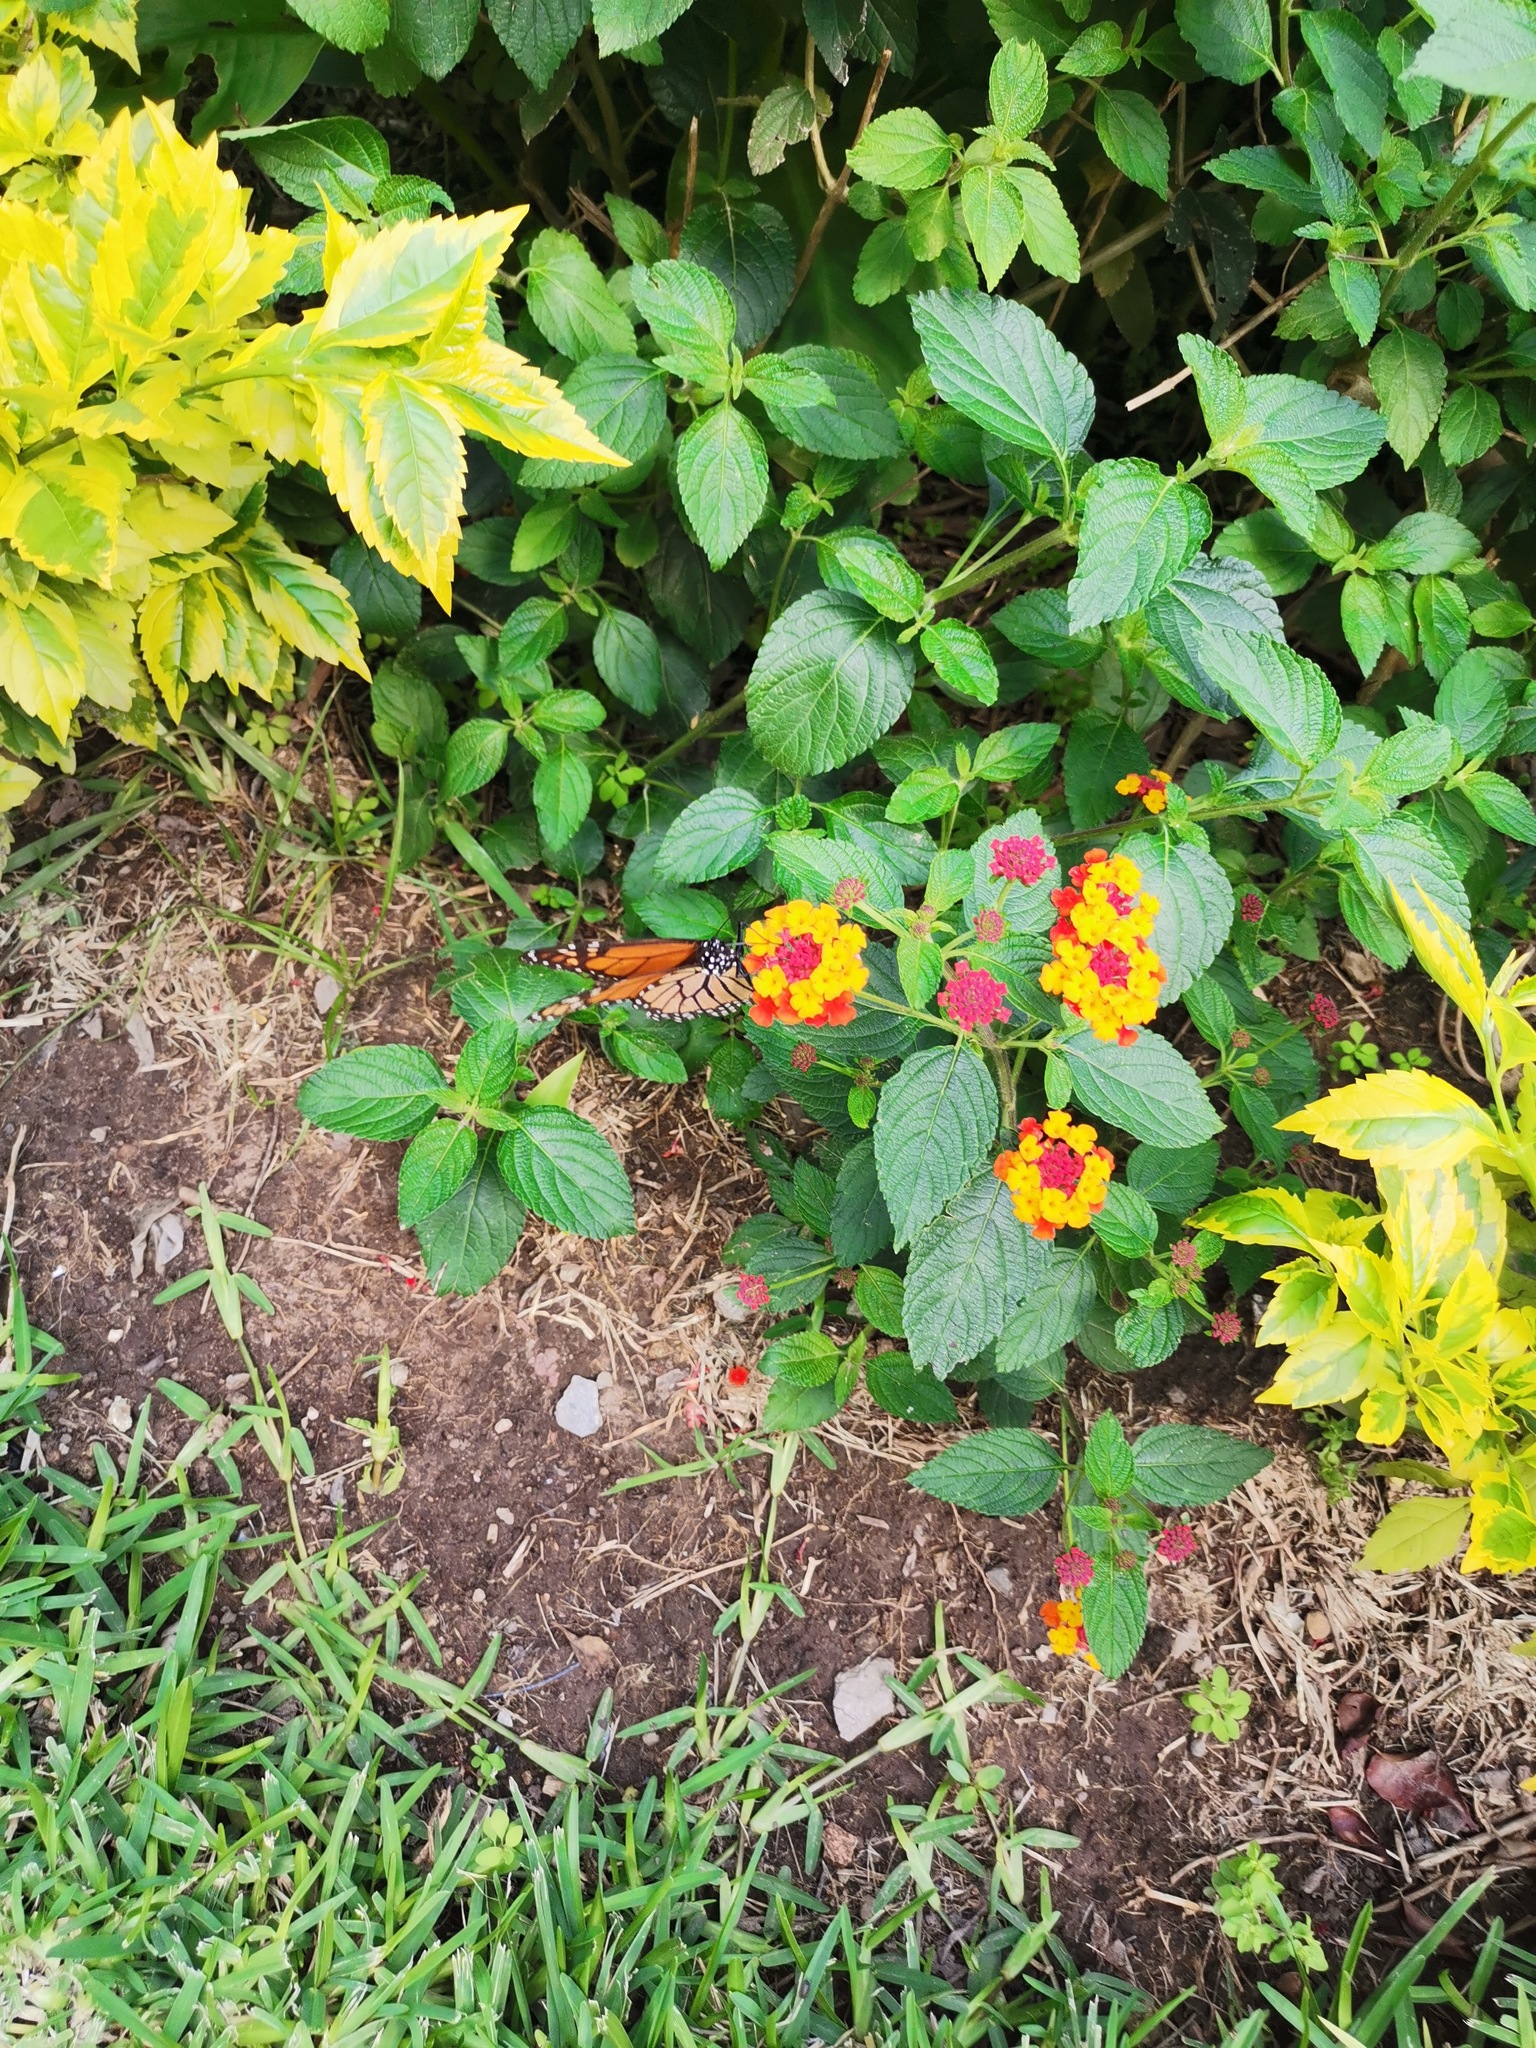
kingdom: Animalia
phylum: Arthropoda
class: Insecta
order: Lepidoptera
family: Nymphalidae
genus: Danaus
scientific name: Danaus plexippus
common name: Monarch
